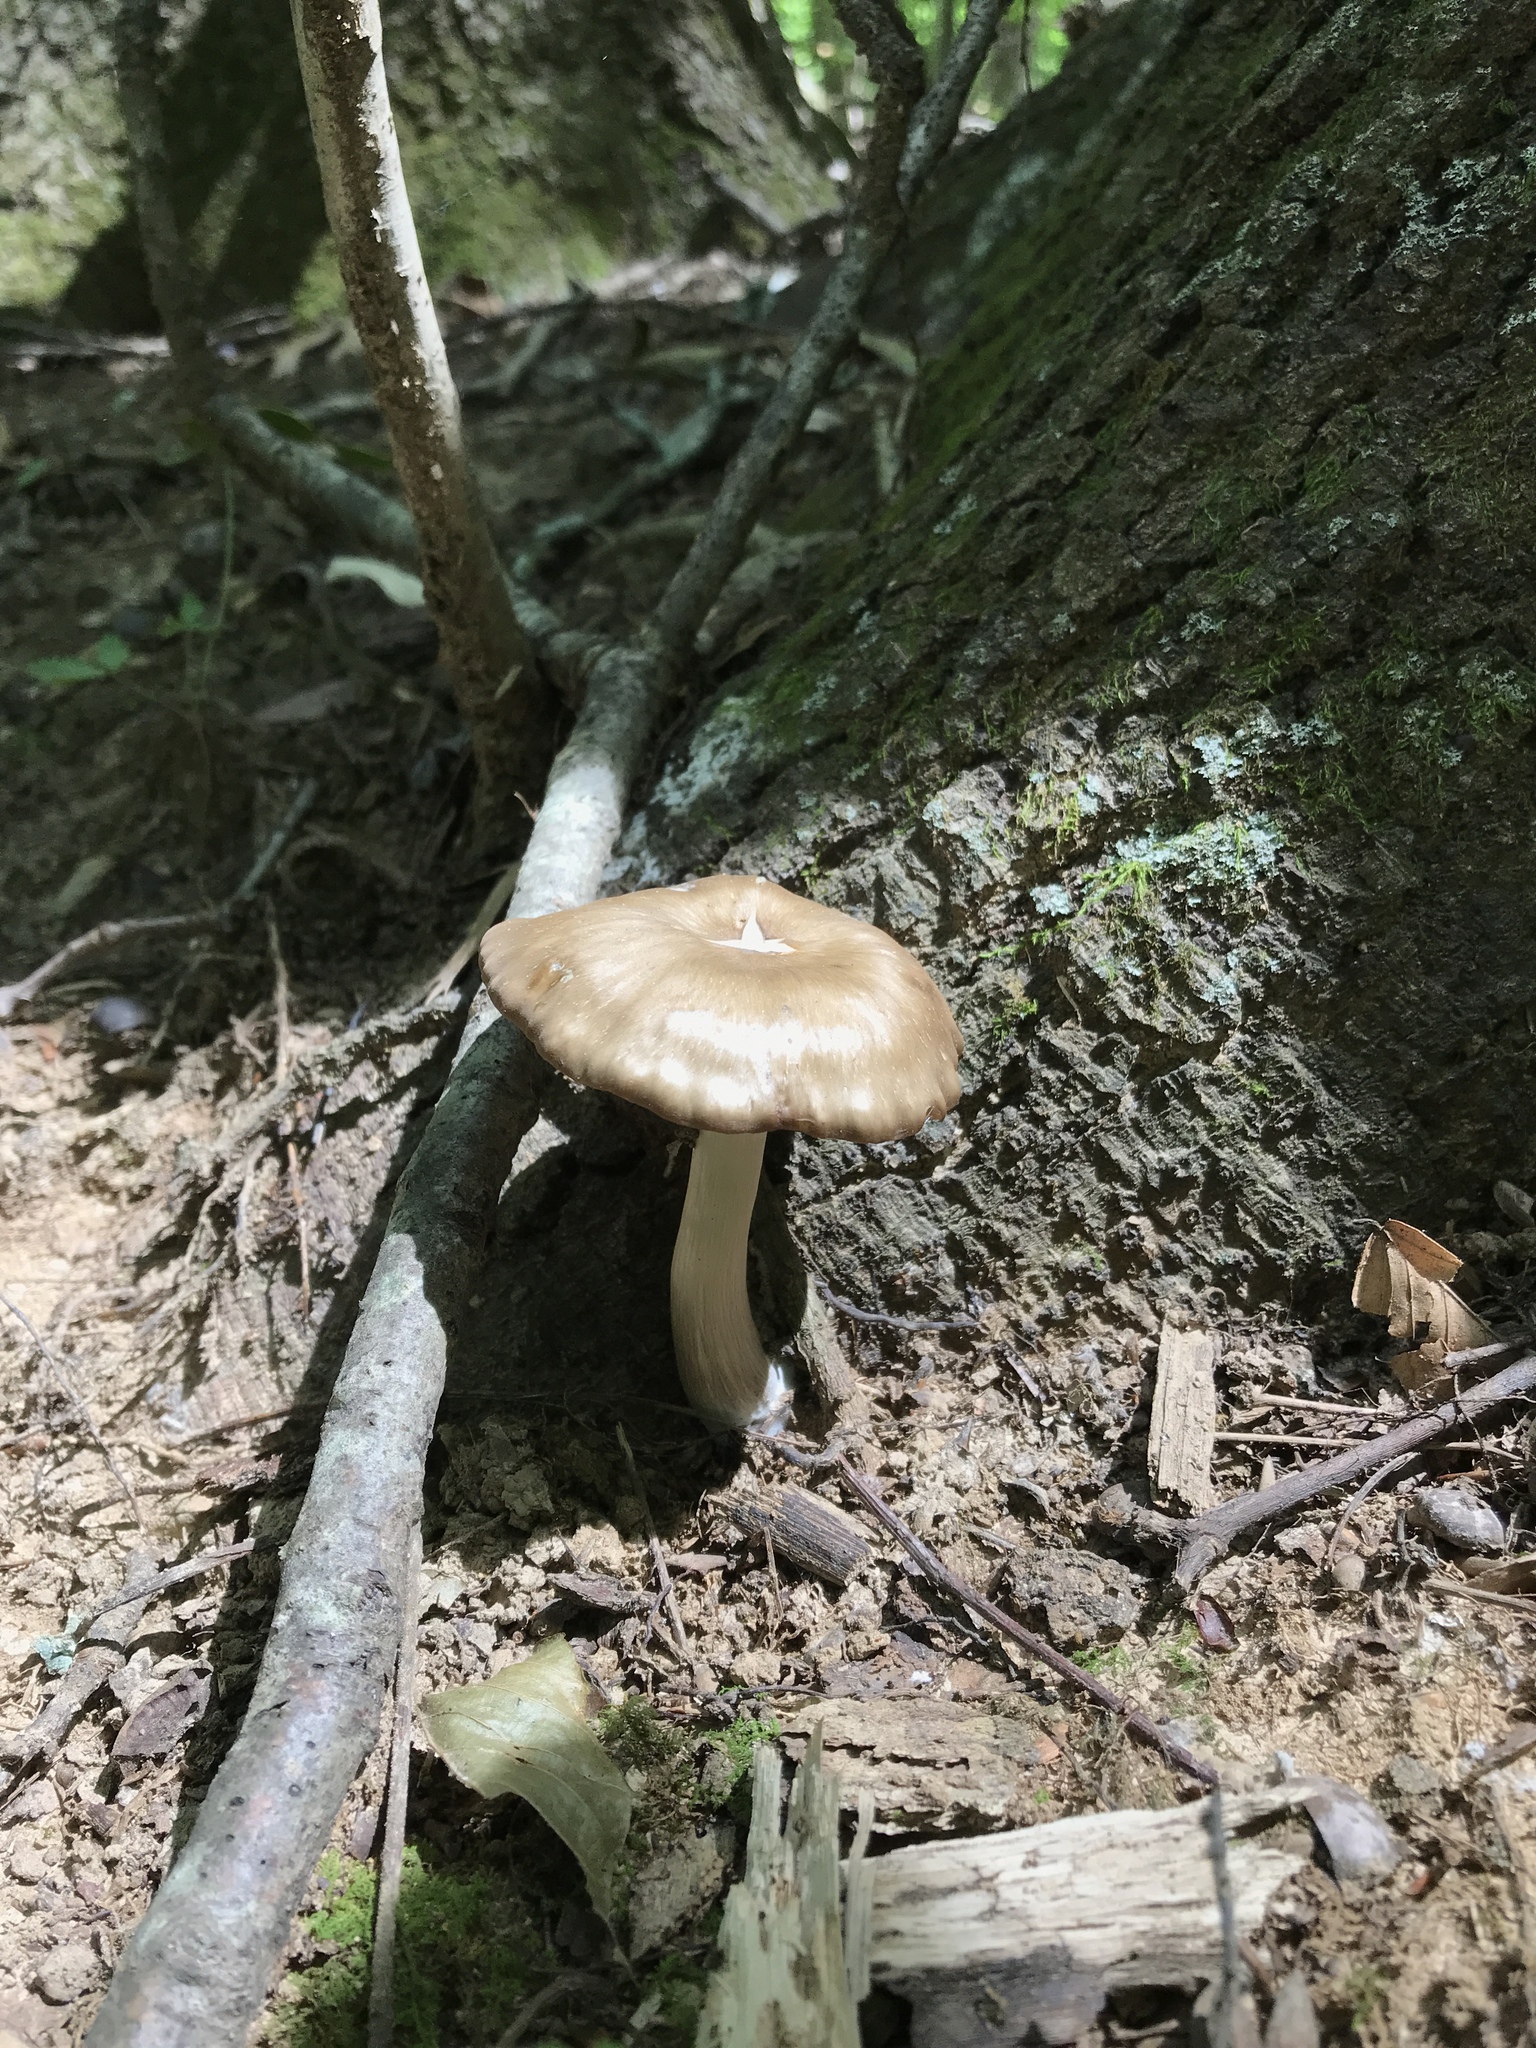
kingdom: Fungi
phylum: Basidiomycota
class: Agaricomycetes
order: Agaricales
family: Entolomataceae
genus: Entoloma
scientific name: Entoloma carolinianum
